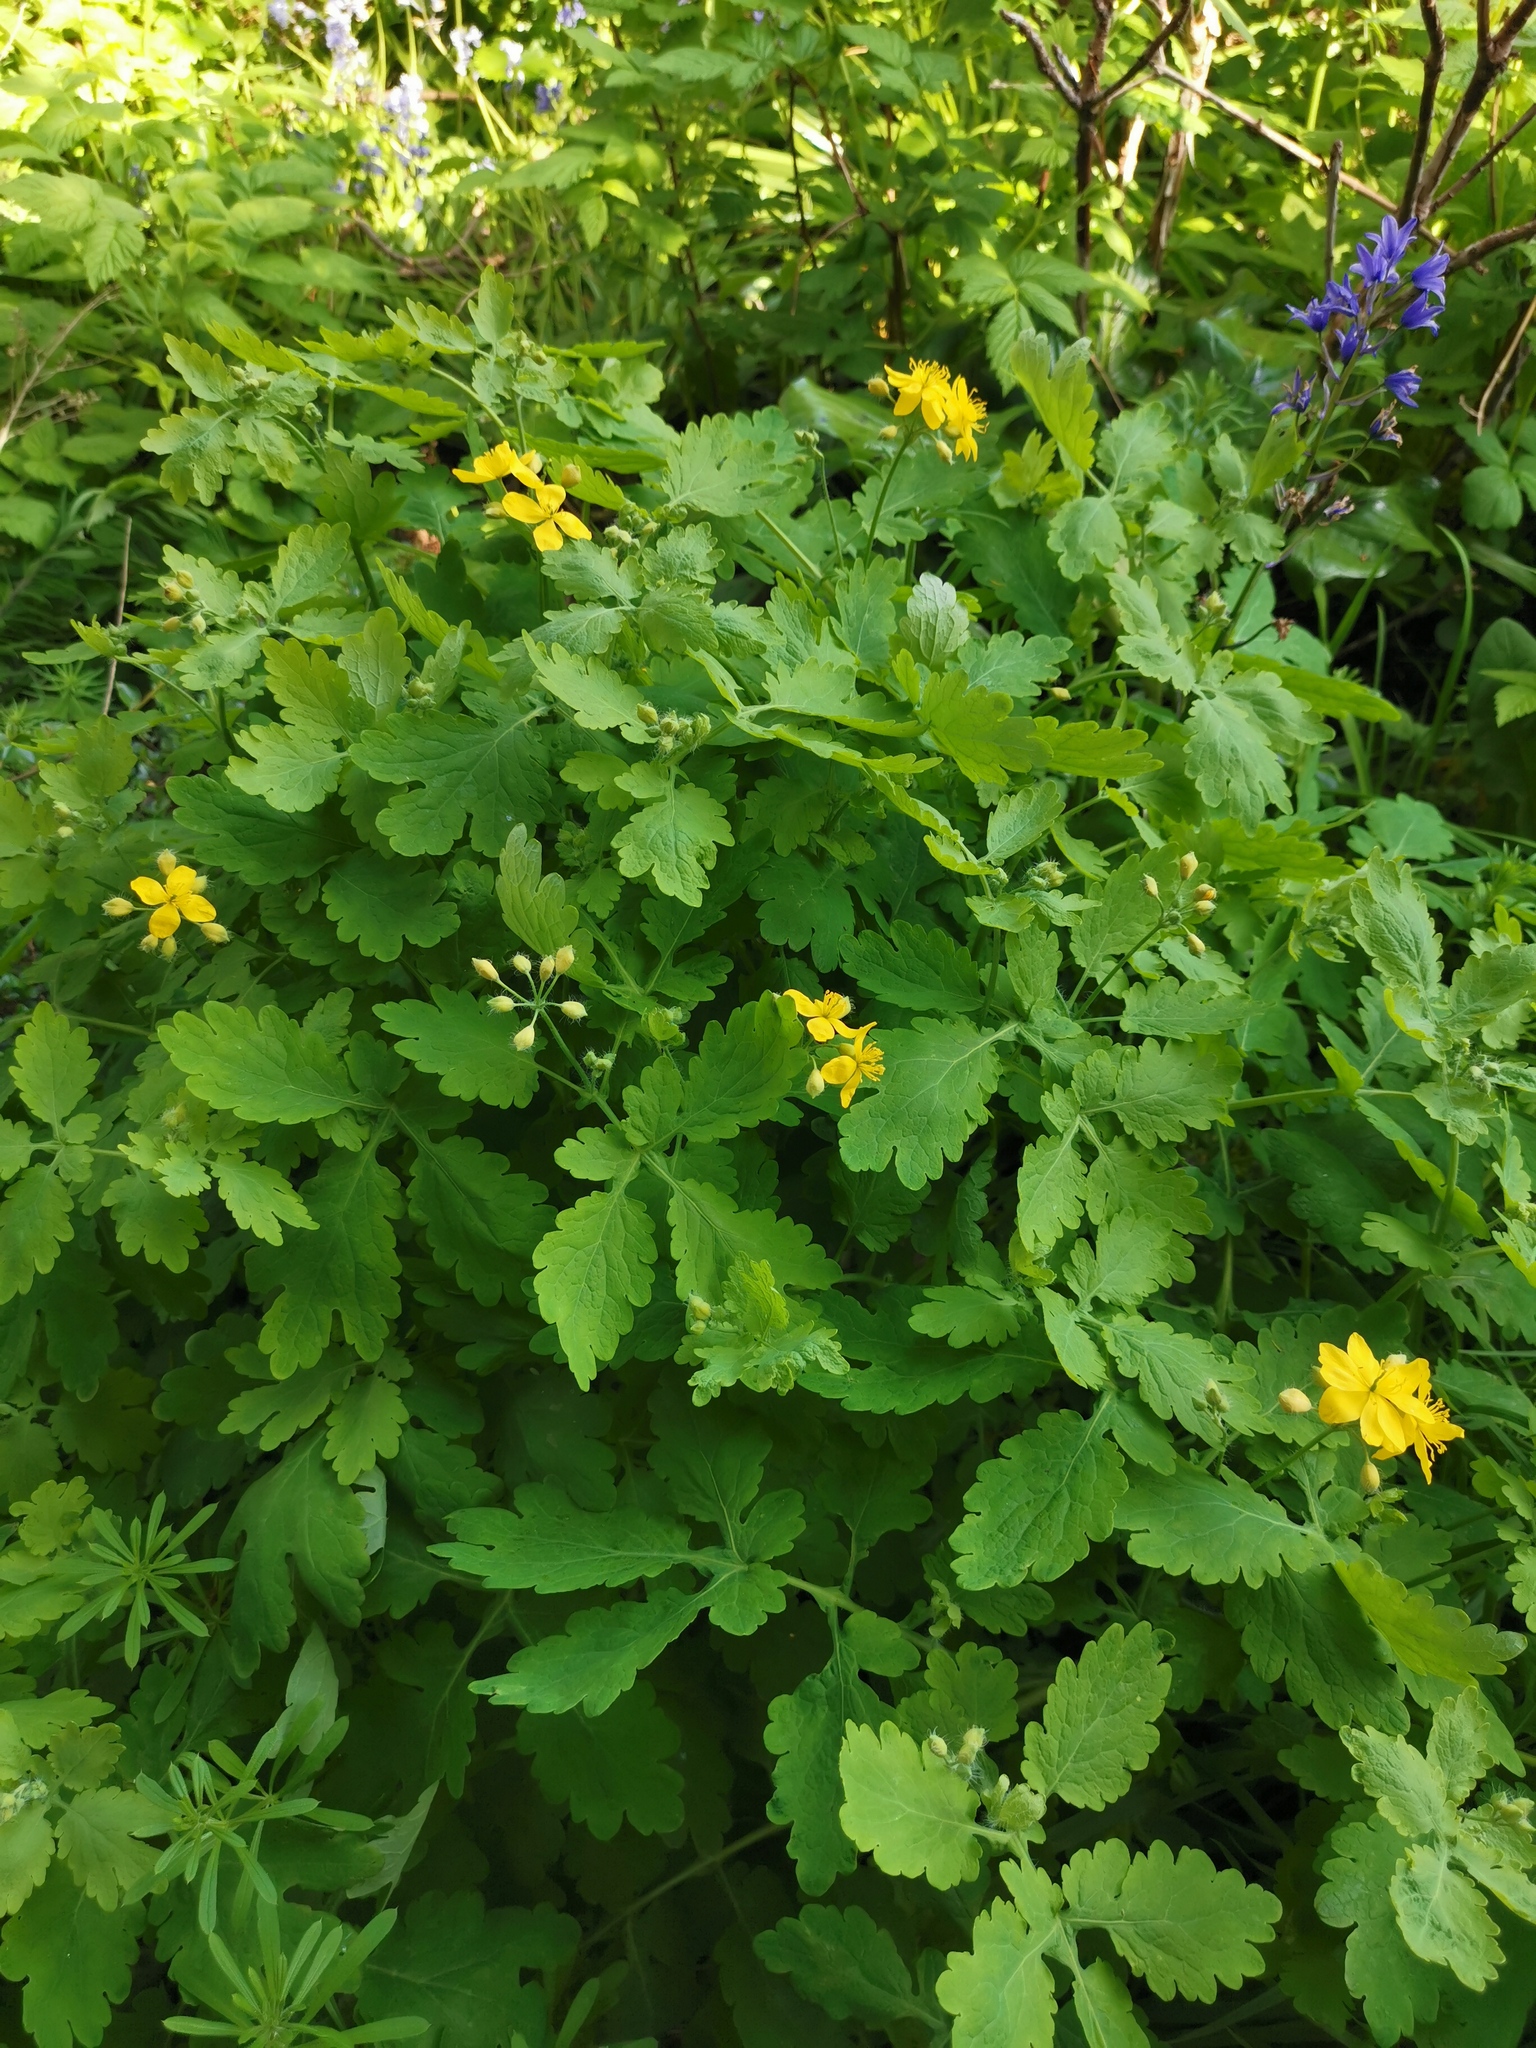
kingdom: Plantae
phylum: Tracheophyta
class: Magnoliopsida
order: Ranunculales
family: Papaveraceae
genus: Chelidonium
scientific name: Chelidonium majus
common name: Greater celandine
